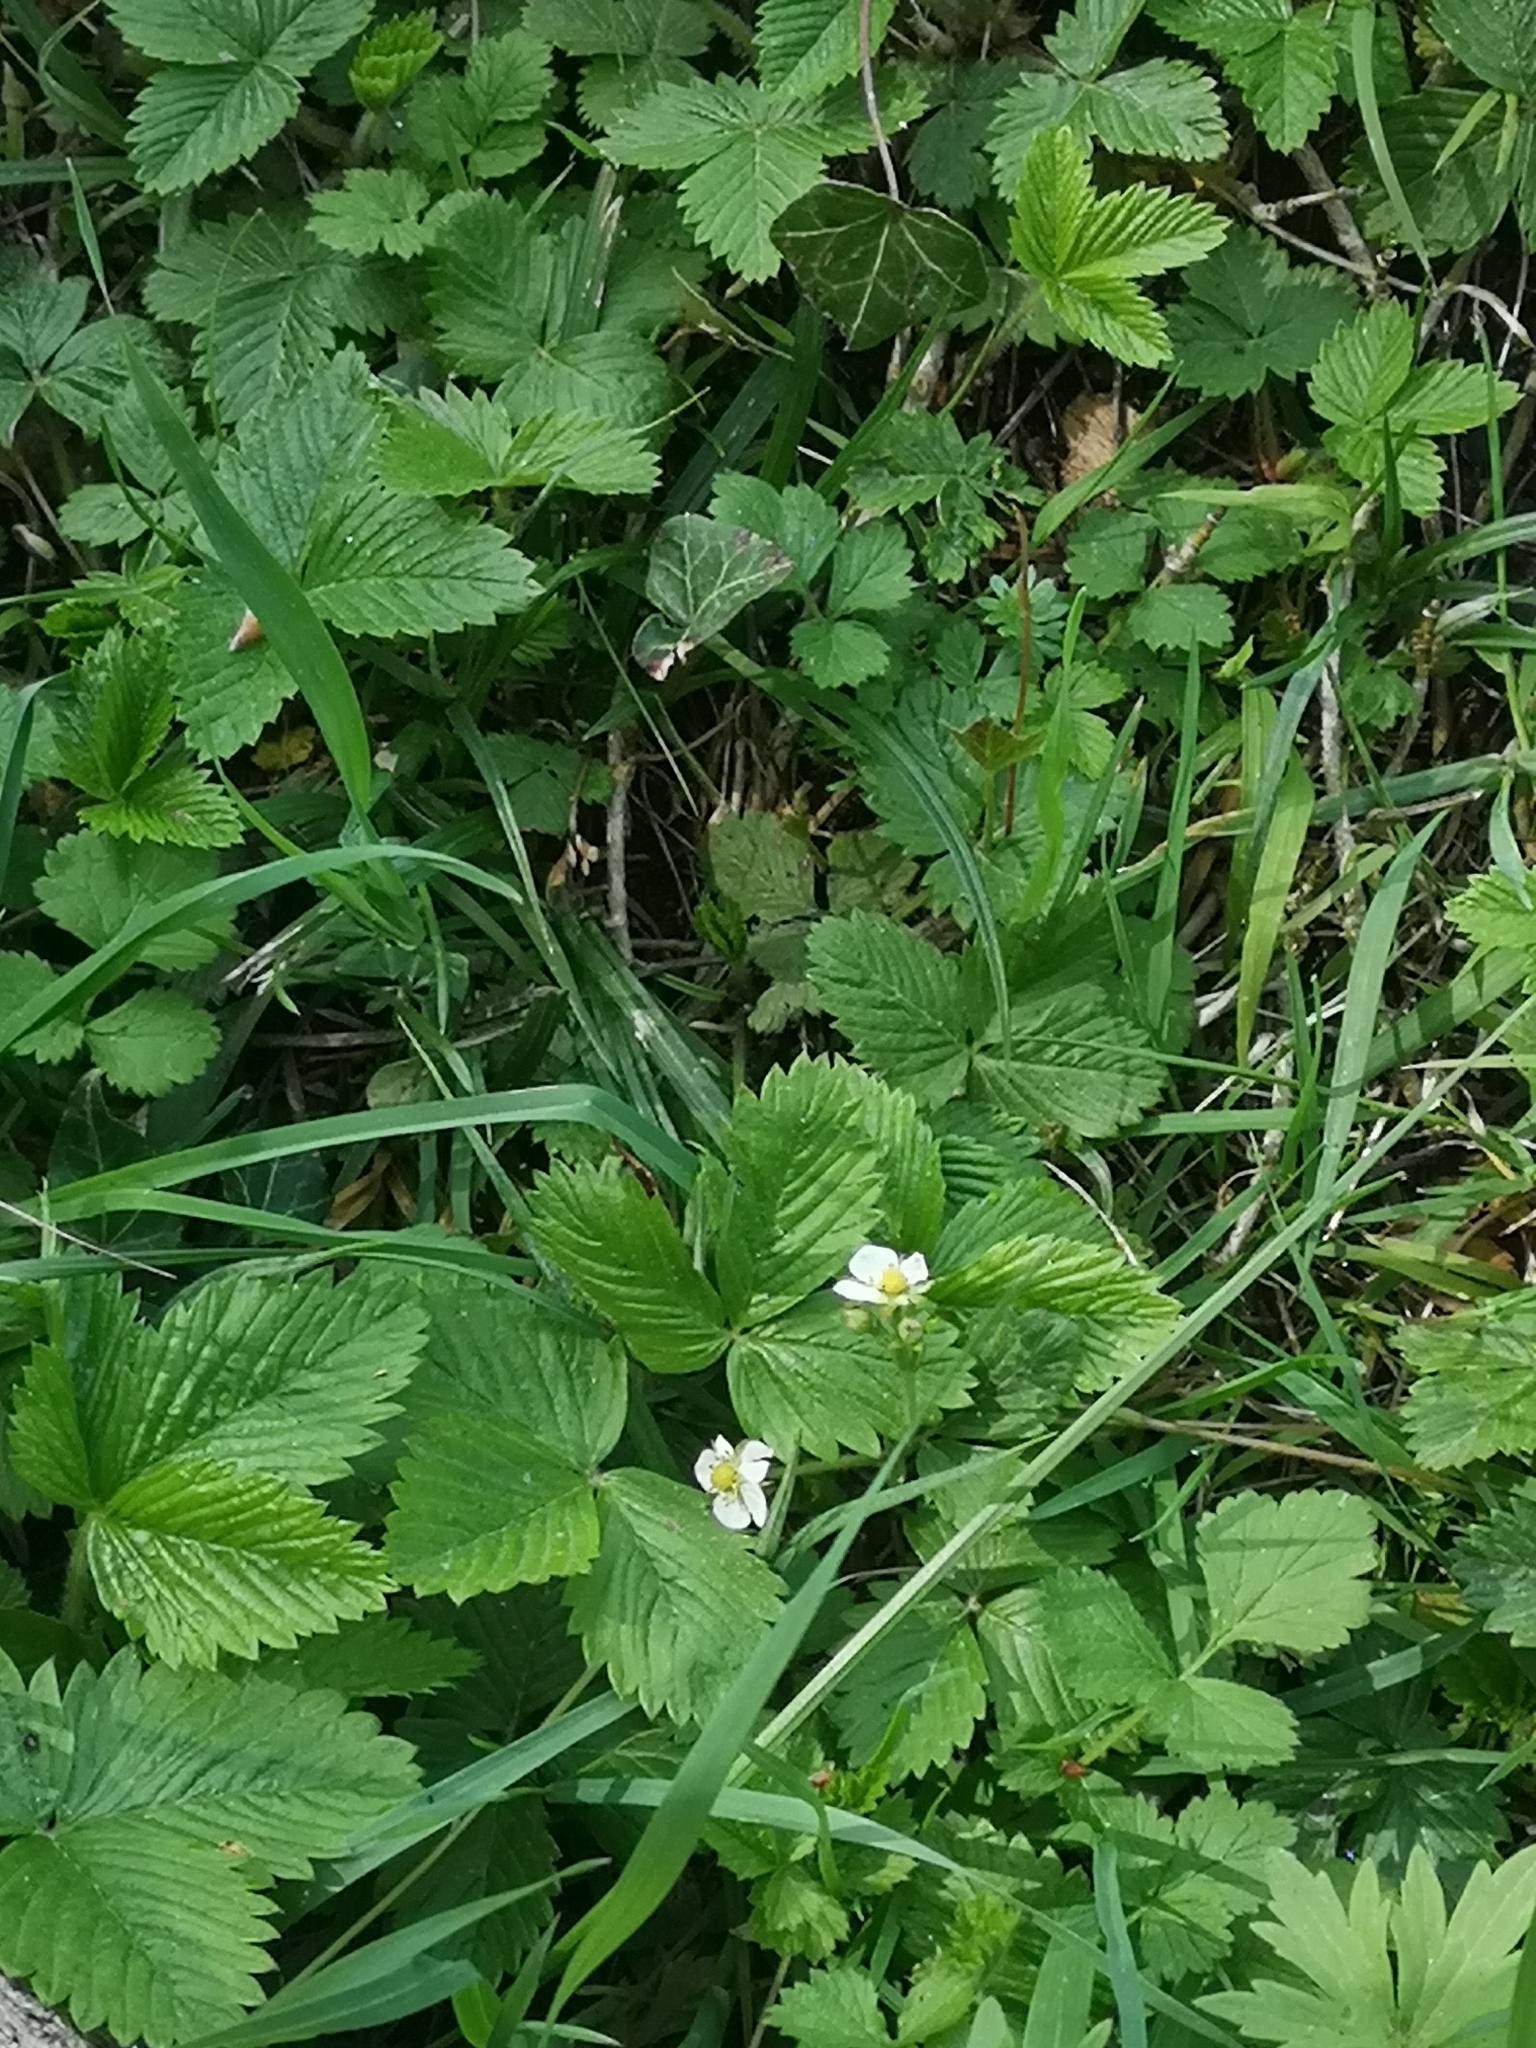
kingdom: Plantae
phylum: Tracheophyta
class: Magnoliopsida
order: Rosales
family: Rosaceae
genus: Fragaria
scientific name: Fragaria vesca
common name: Wild strawberry
